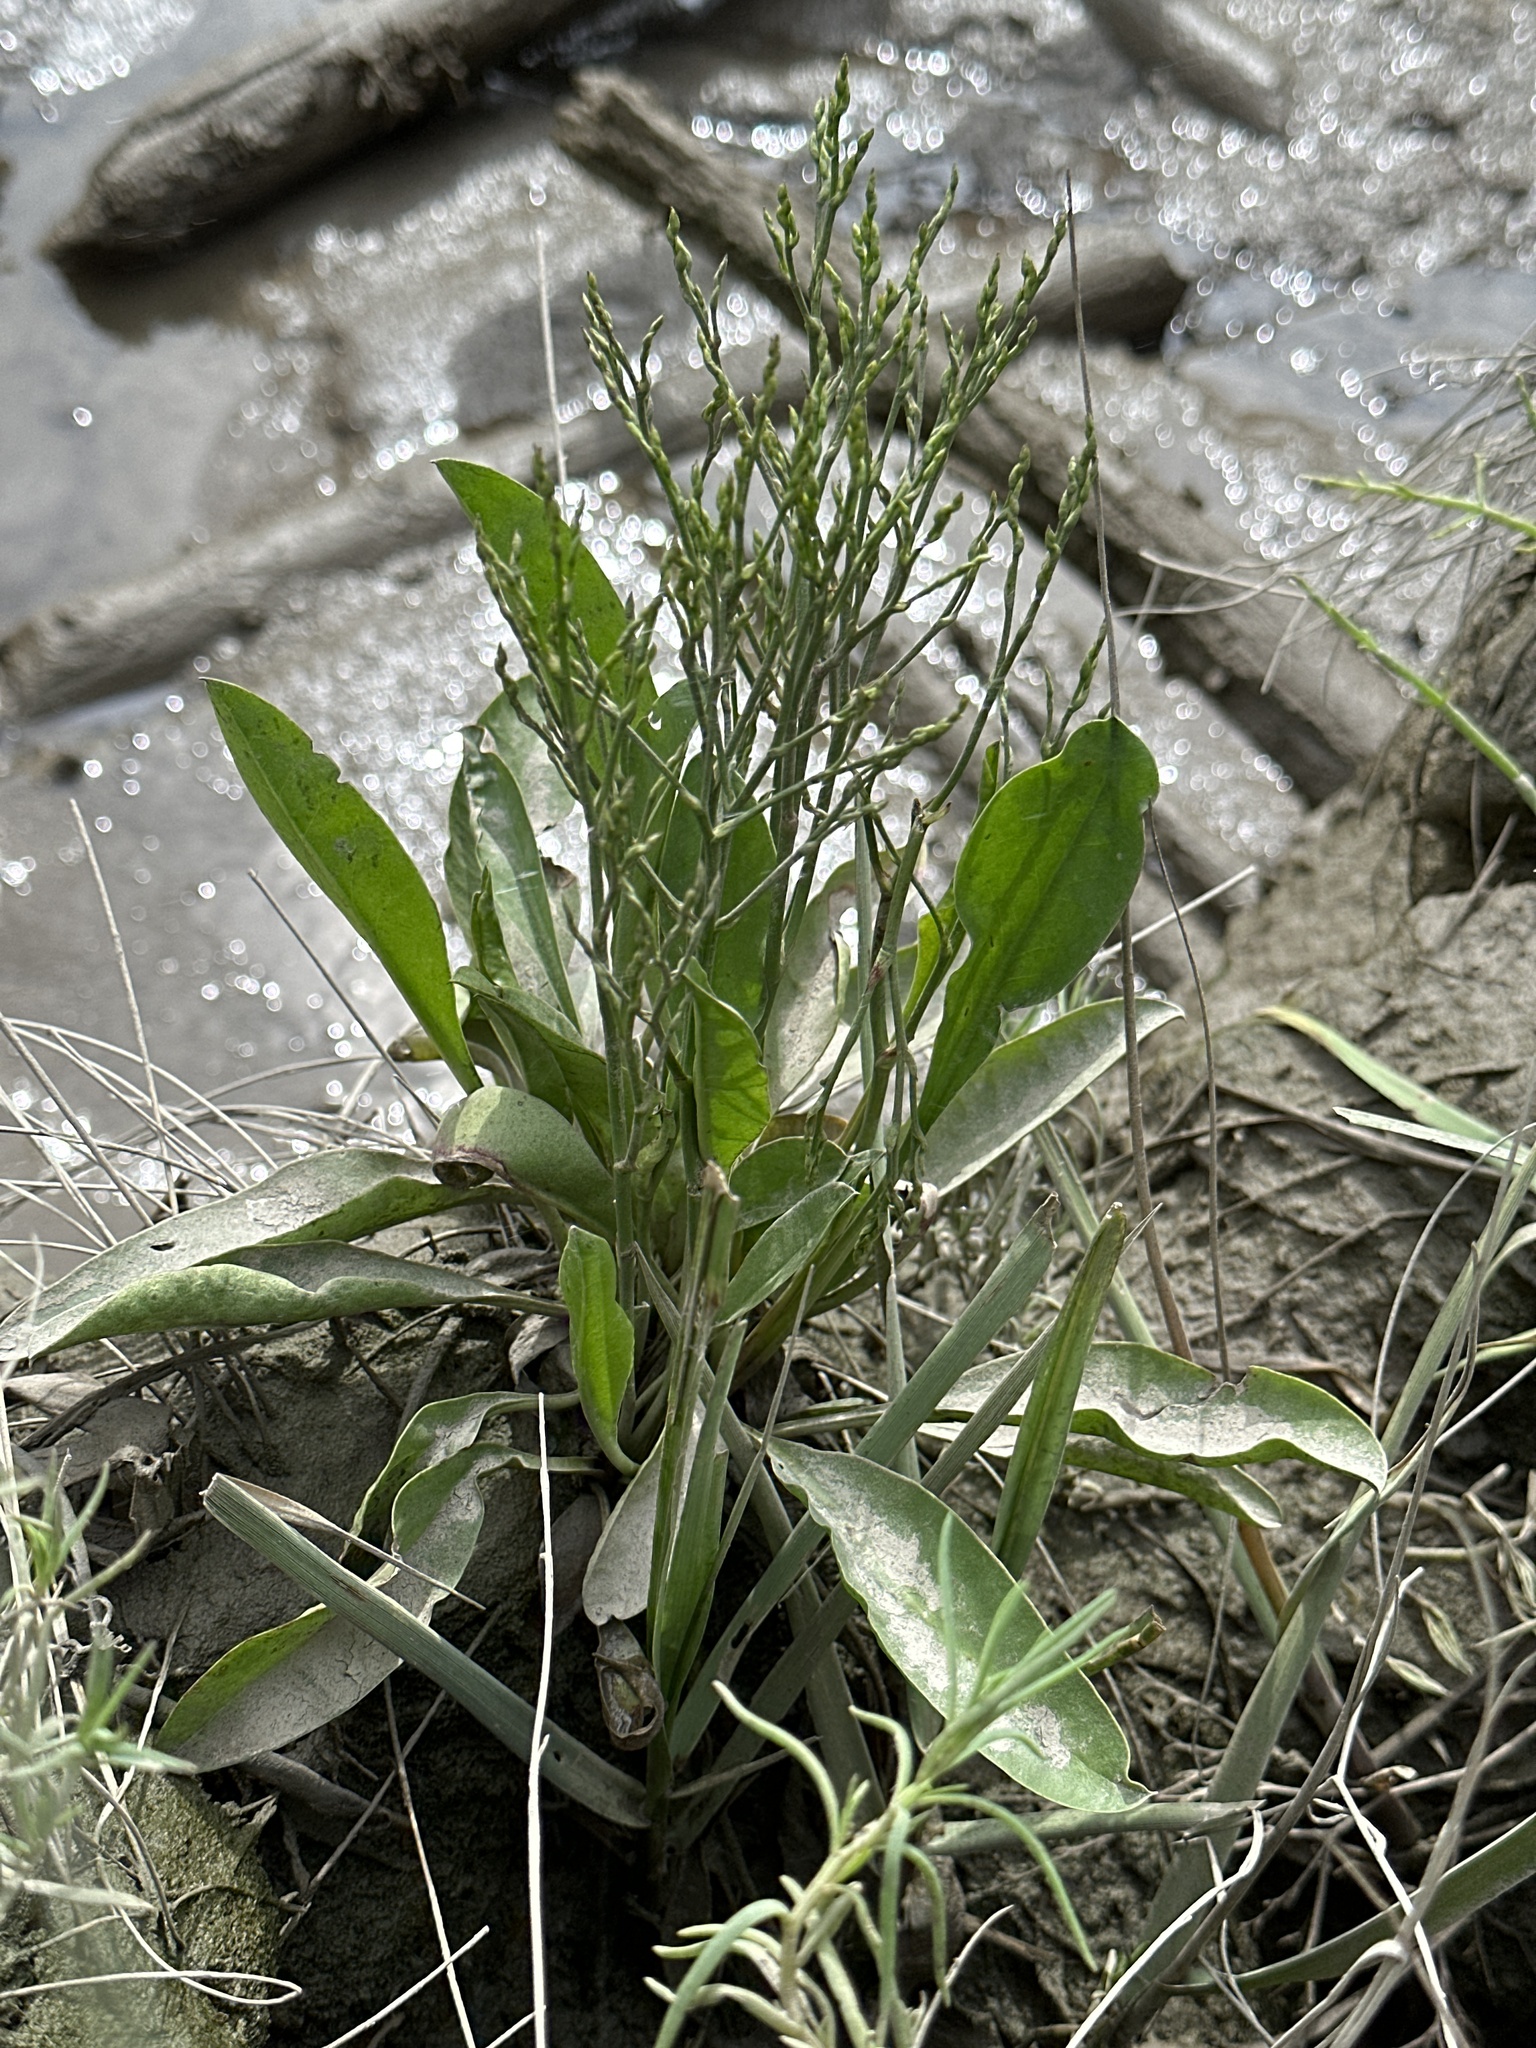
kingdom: Plantae
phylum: Tracheophyta
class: Magnoliopsida
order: Caryophyllales
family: Plumbaginaceae
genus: Limonium
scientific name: Limonium carolinianum
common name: Carolina sea lavender
